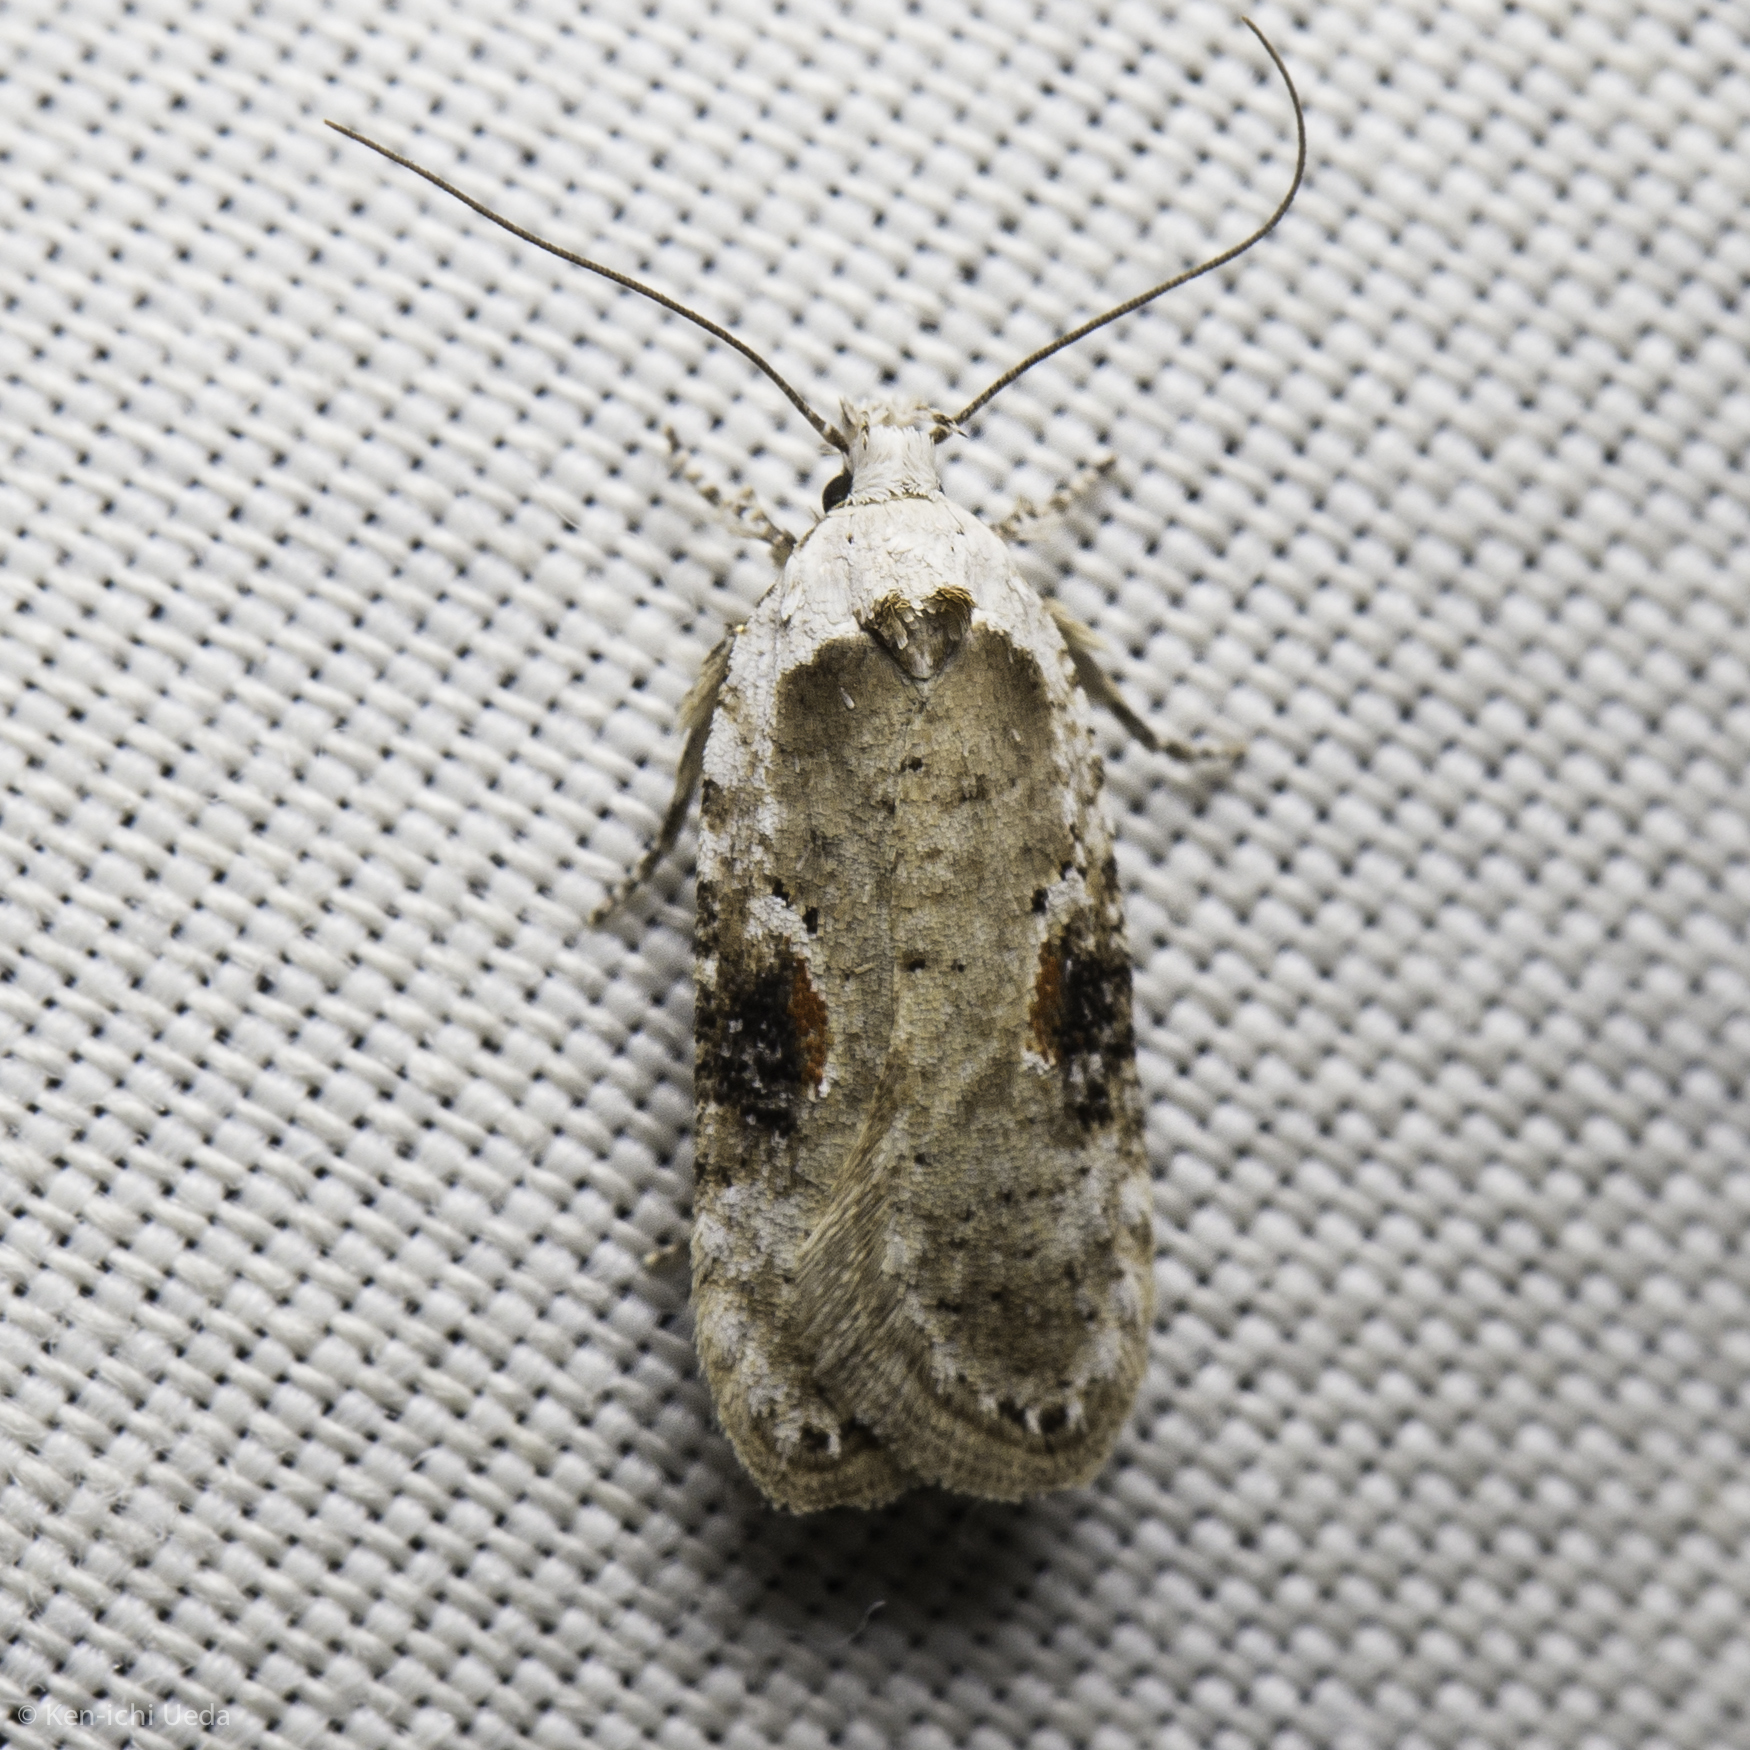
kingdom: Animalia
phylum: Arthropoda
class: Insecta
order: Lepidoptera
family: Depressariidae
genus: Agonopterix
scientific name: Agonopterix alstroemeriana
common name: Moth
